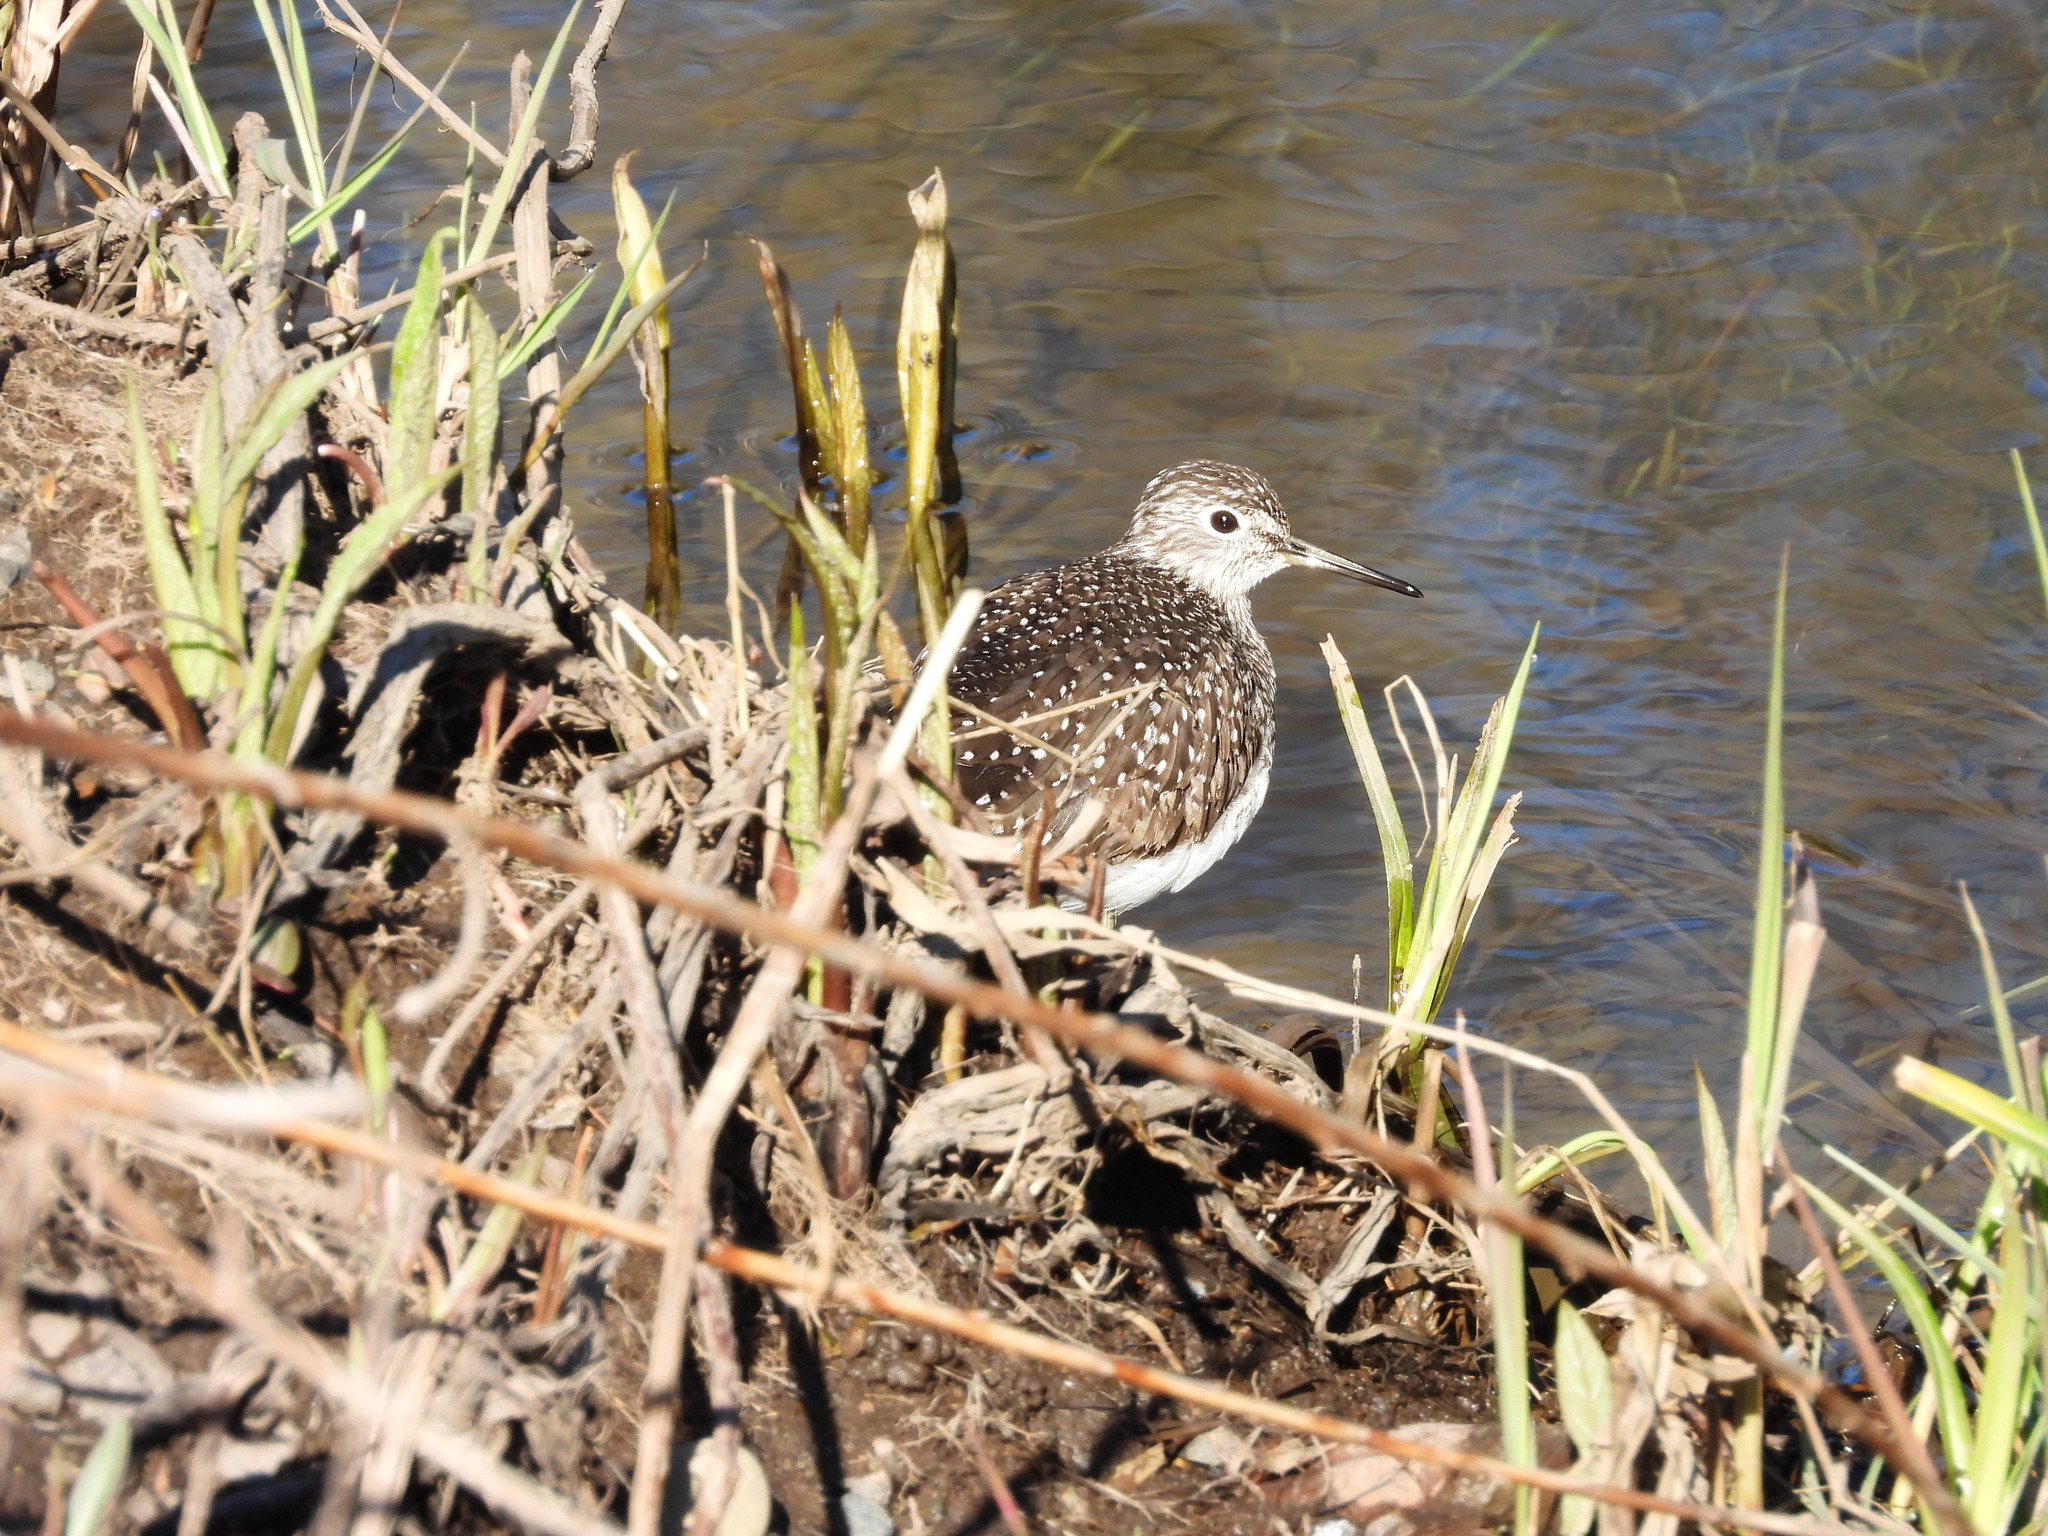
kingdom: Animalia
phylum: Chordata
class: Aves
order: Charadriiformes
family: Scolopacidae
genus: Tringa
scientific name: Tringa solitaria
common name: Solitary sandpiper
